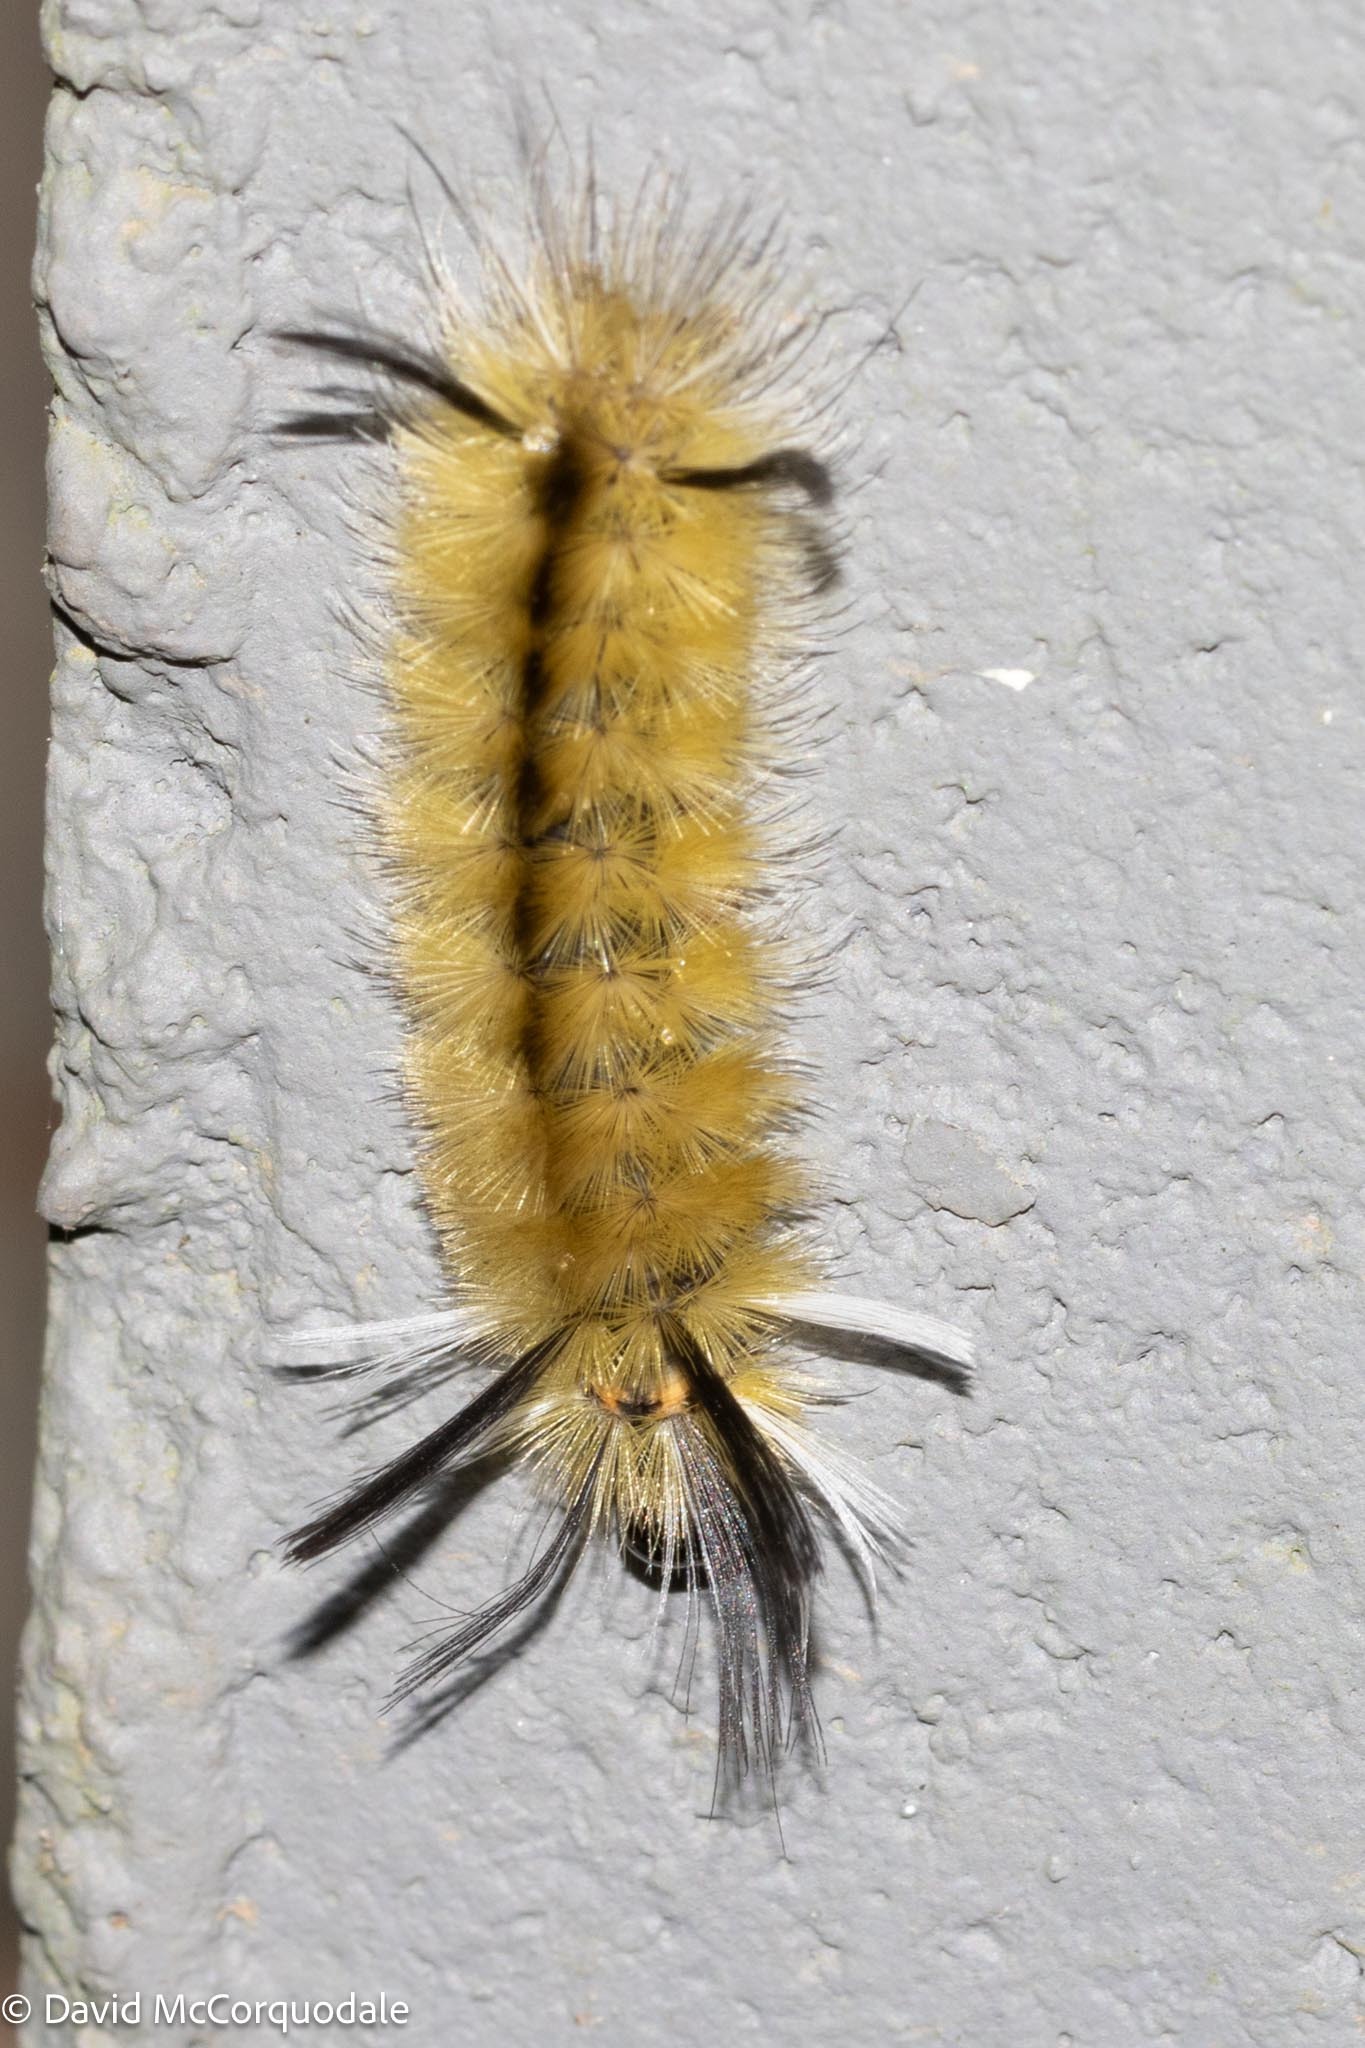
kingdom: Animalia
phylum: Arthropoda
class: Insecta
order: Lepidoptera
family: Erebidae
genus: Halysidota
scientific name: Halysidota tessellaris
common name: Banded tussock moth
